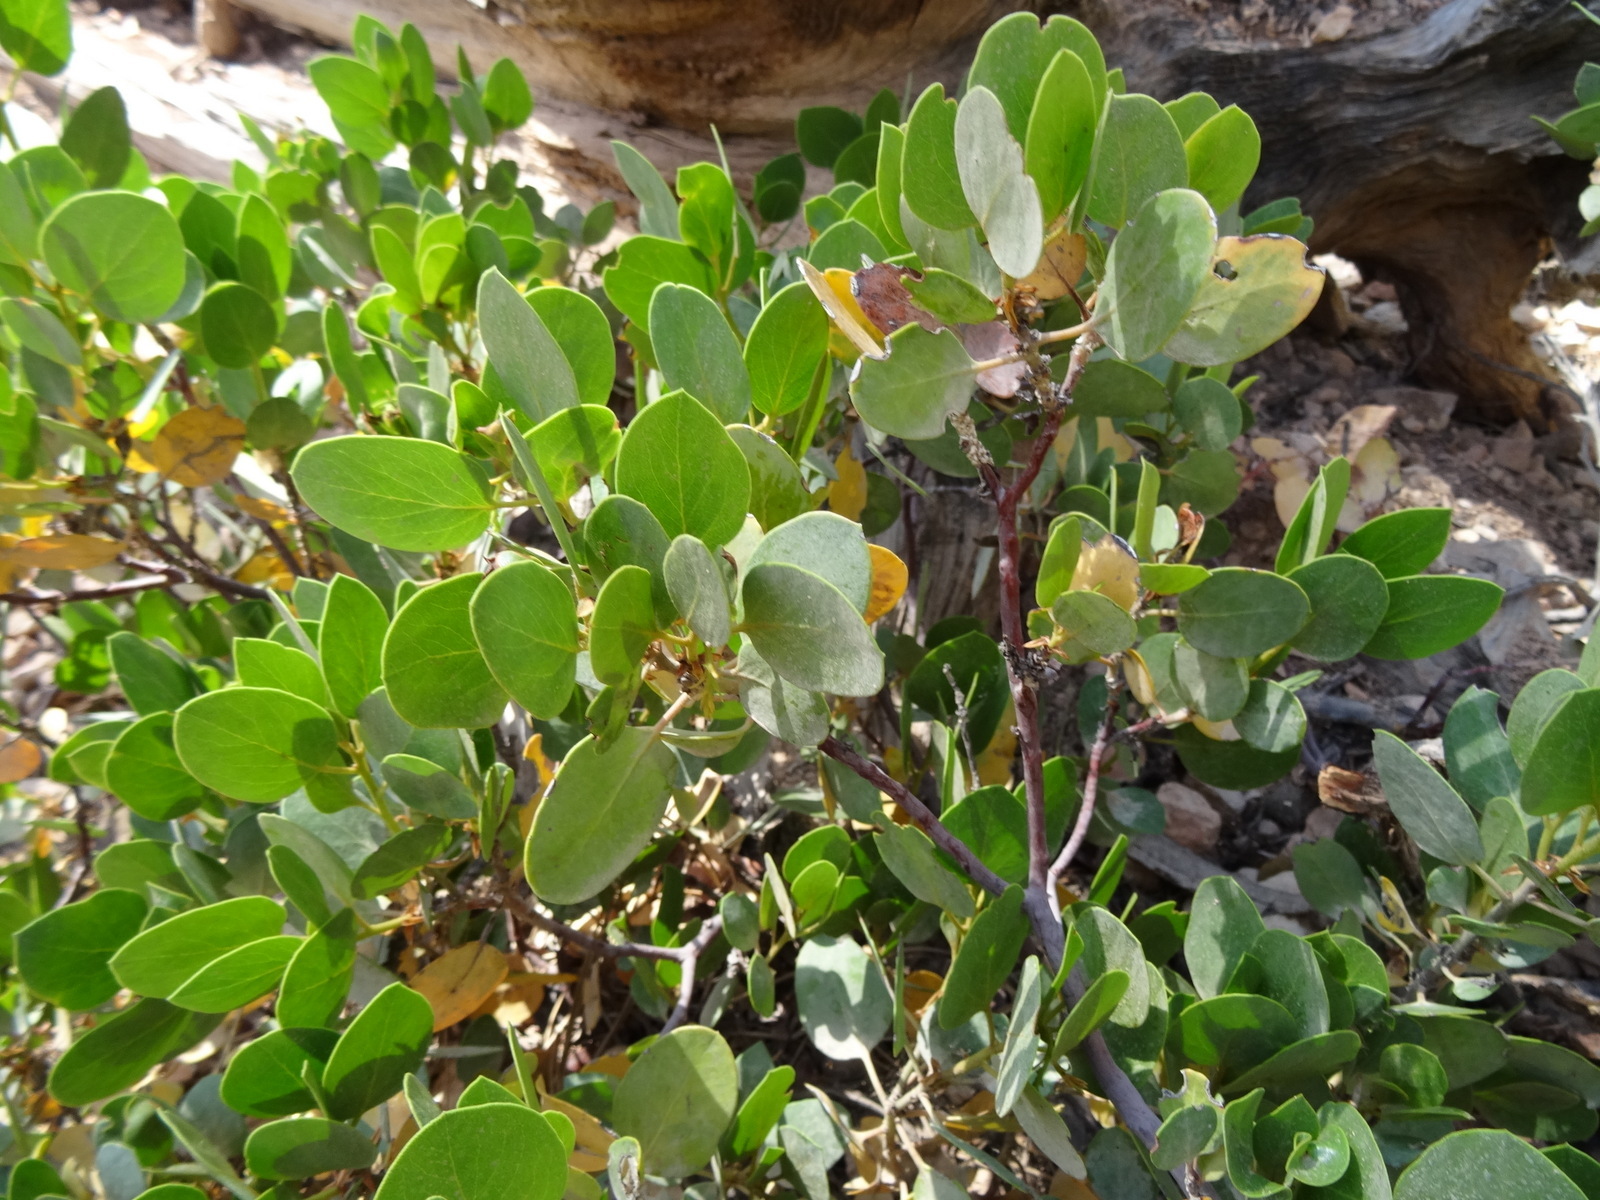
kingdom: Plantae
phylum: Tracheophyta
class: Magnoliopsida
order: Ericales
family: Ericaceae
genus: Arctostaphylos
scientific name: Arctostaphylos patula
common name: Green-leaf manzanita
